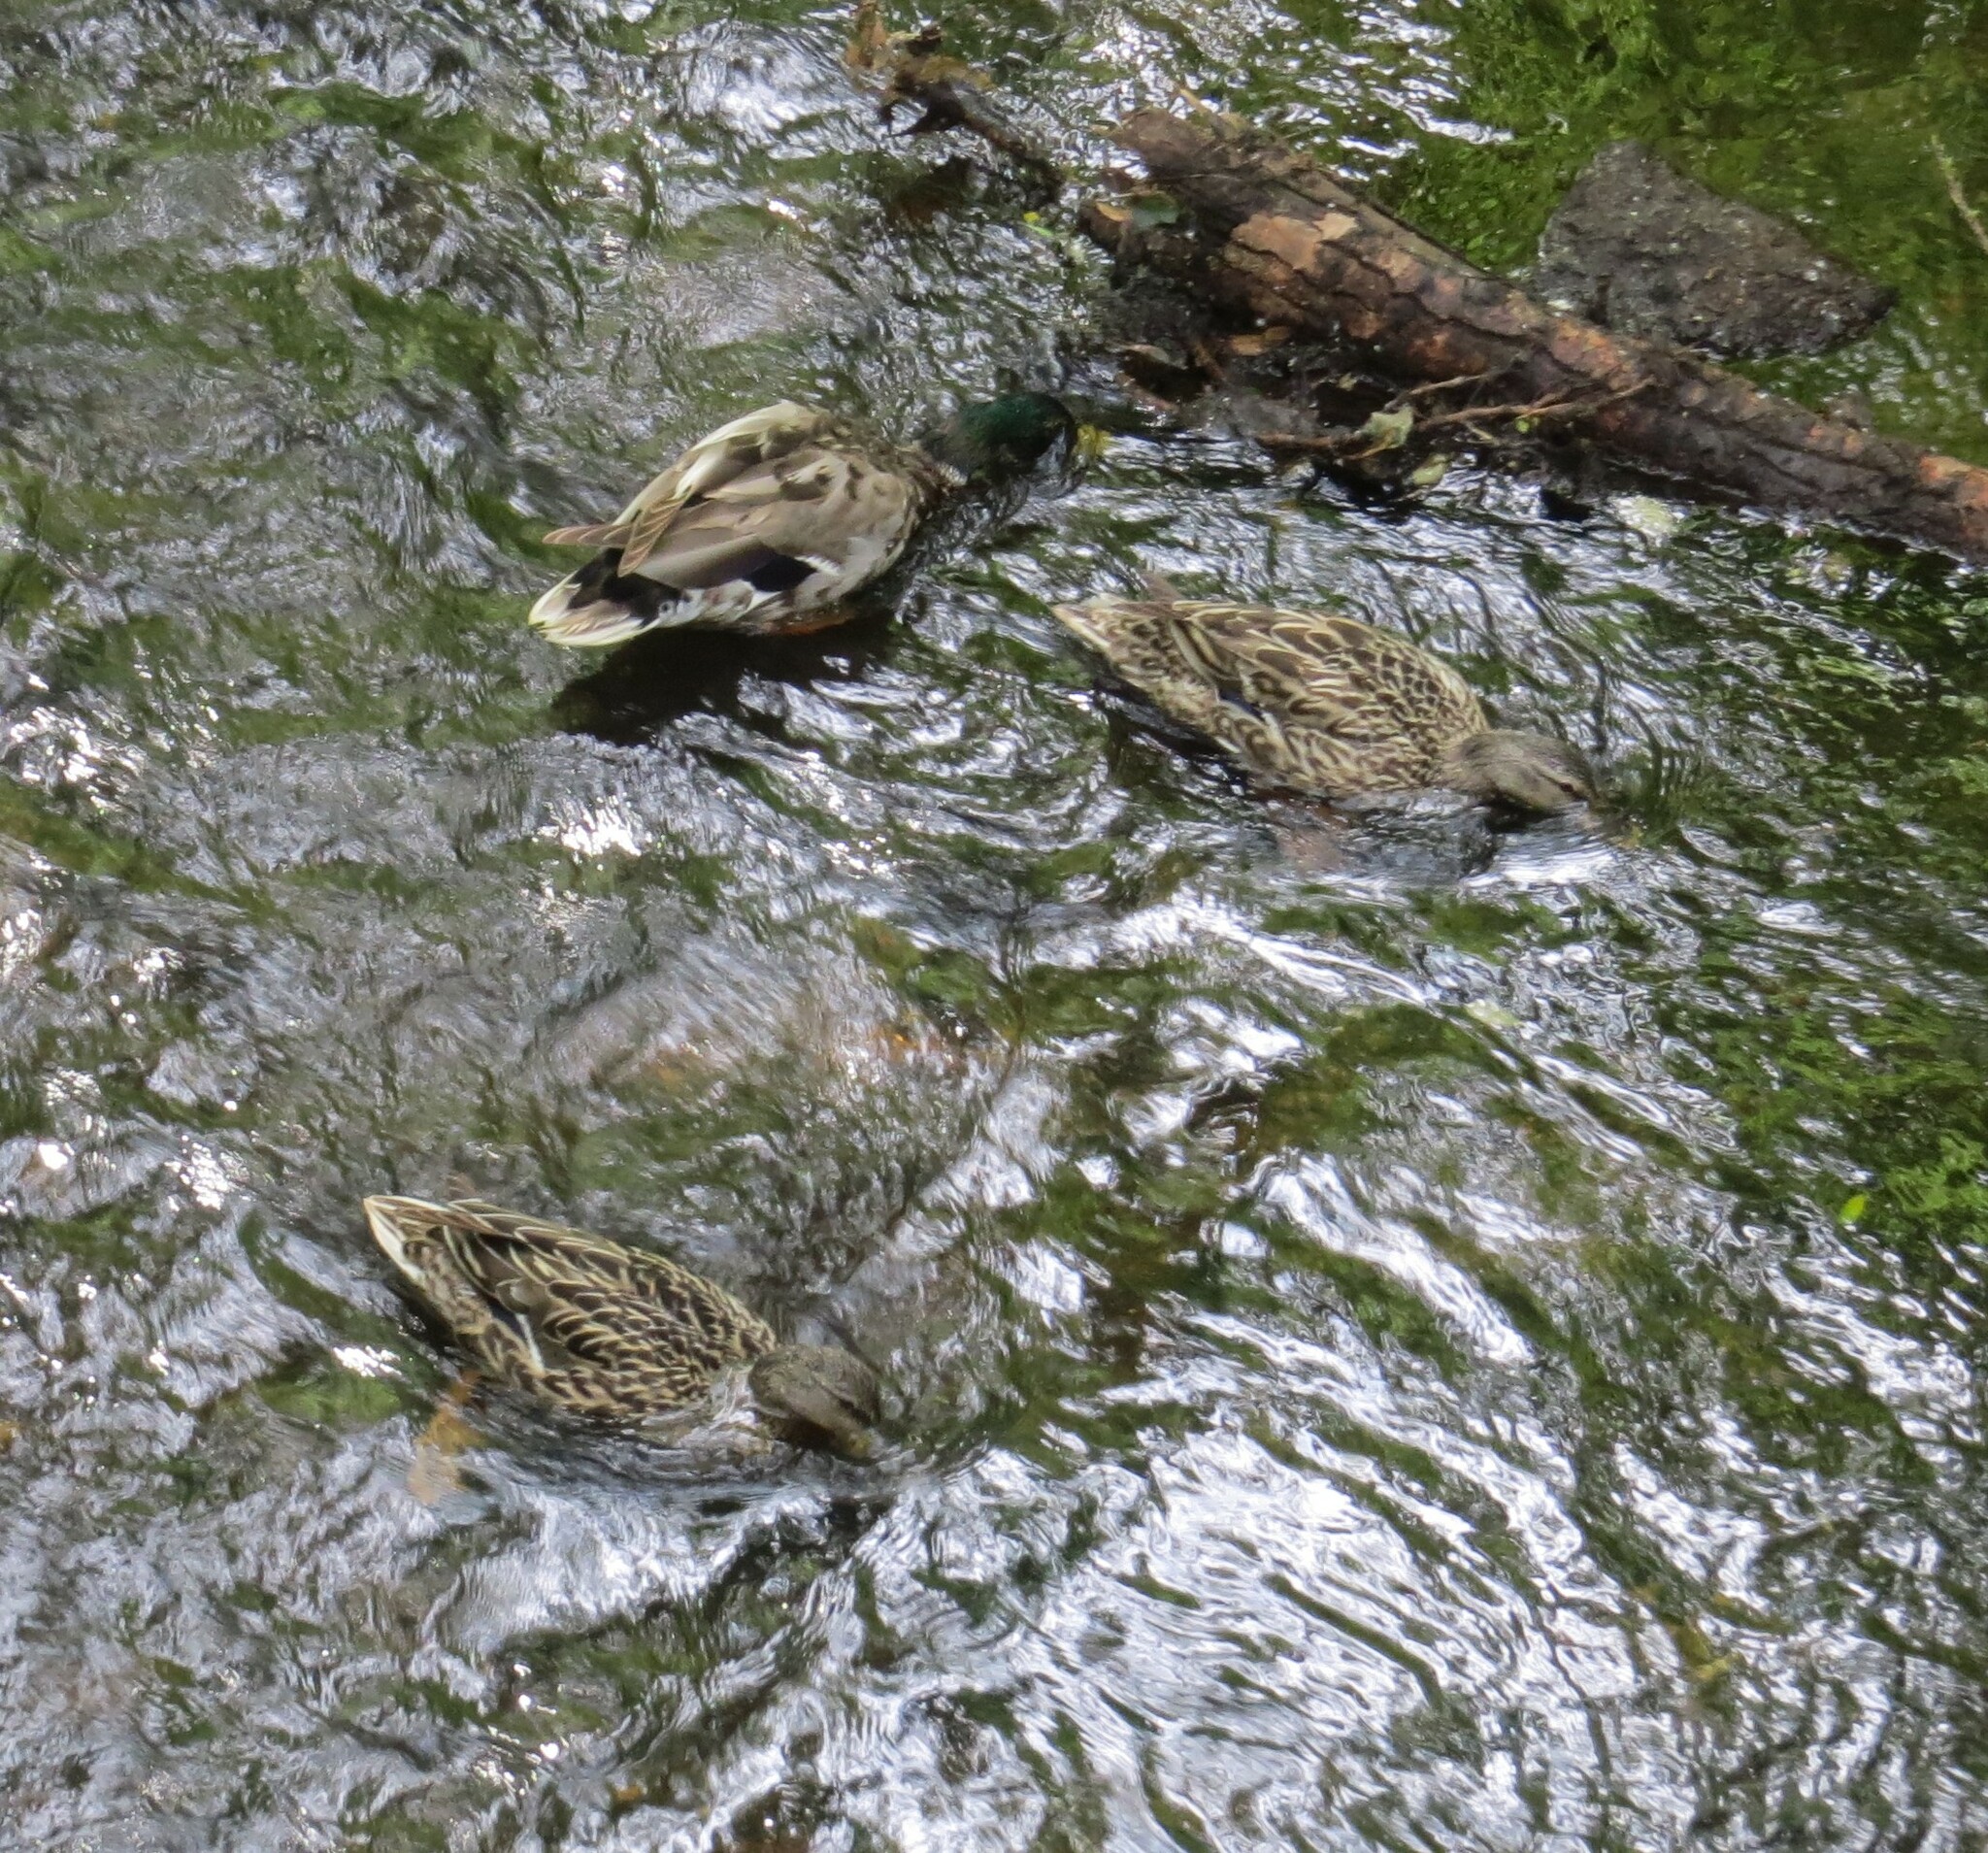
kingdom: Animalia
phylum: Chordata
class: Aves
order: Anseriformes
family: Anatidae
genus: Anas
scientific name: Anas platyrhynchos
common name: Mallard
